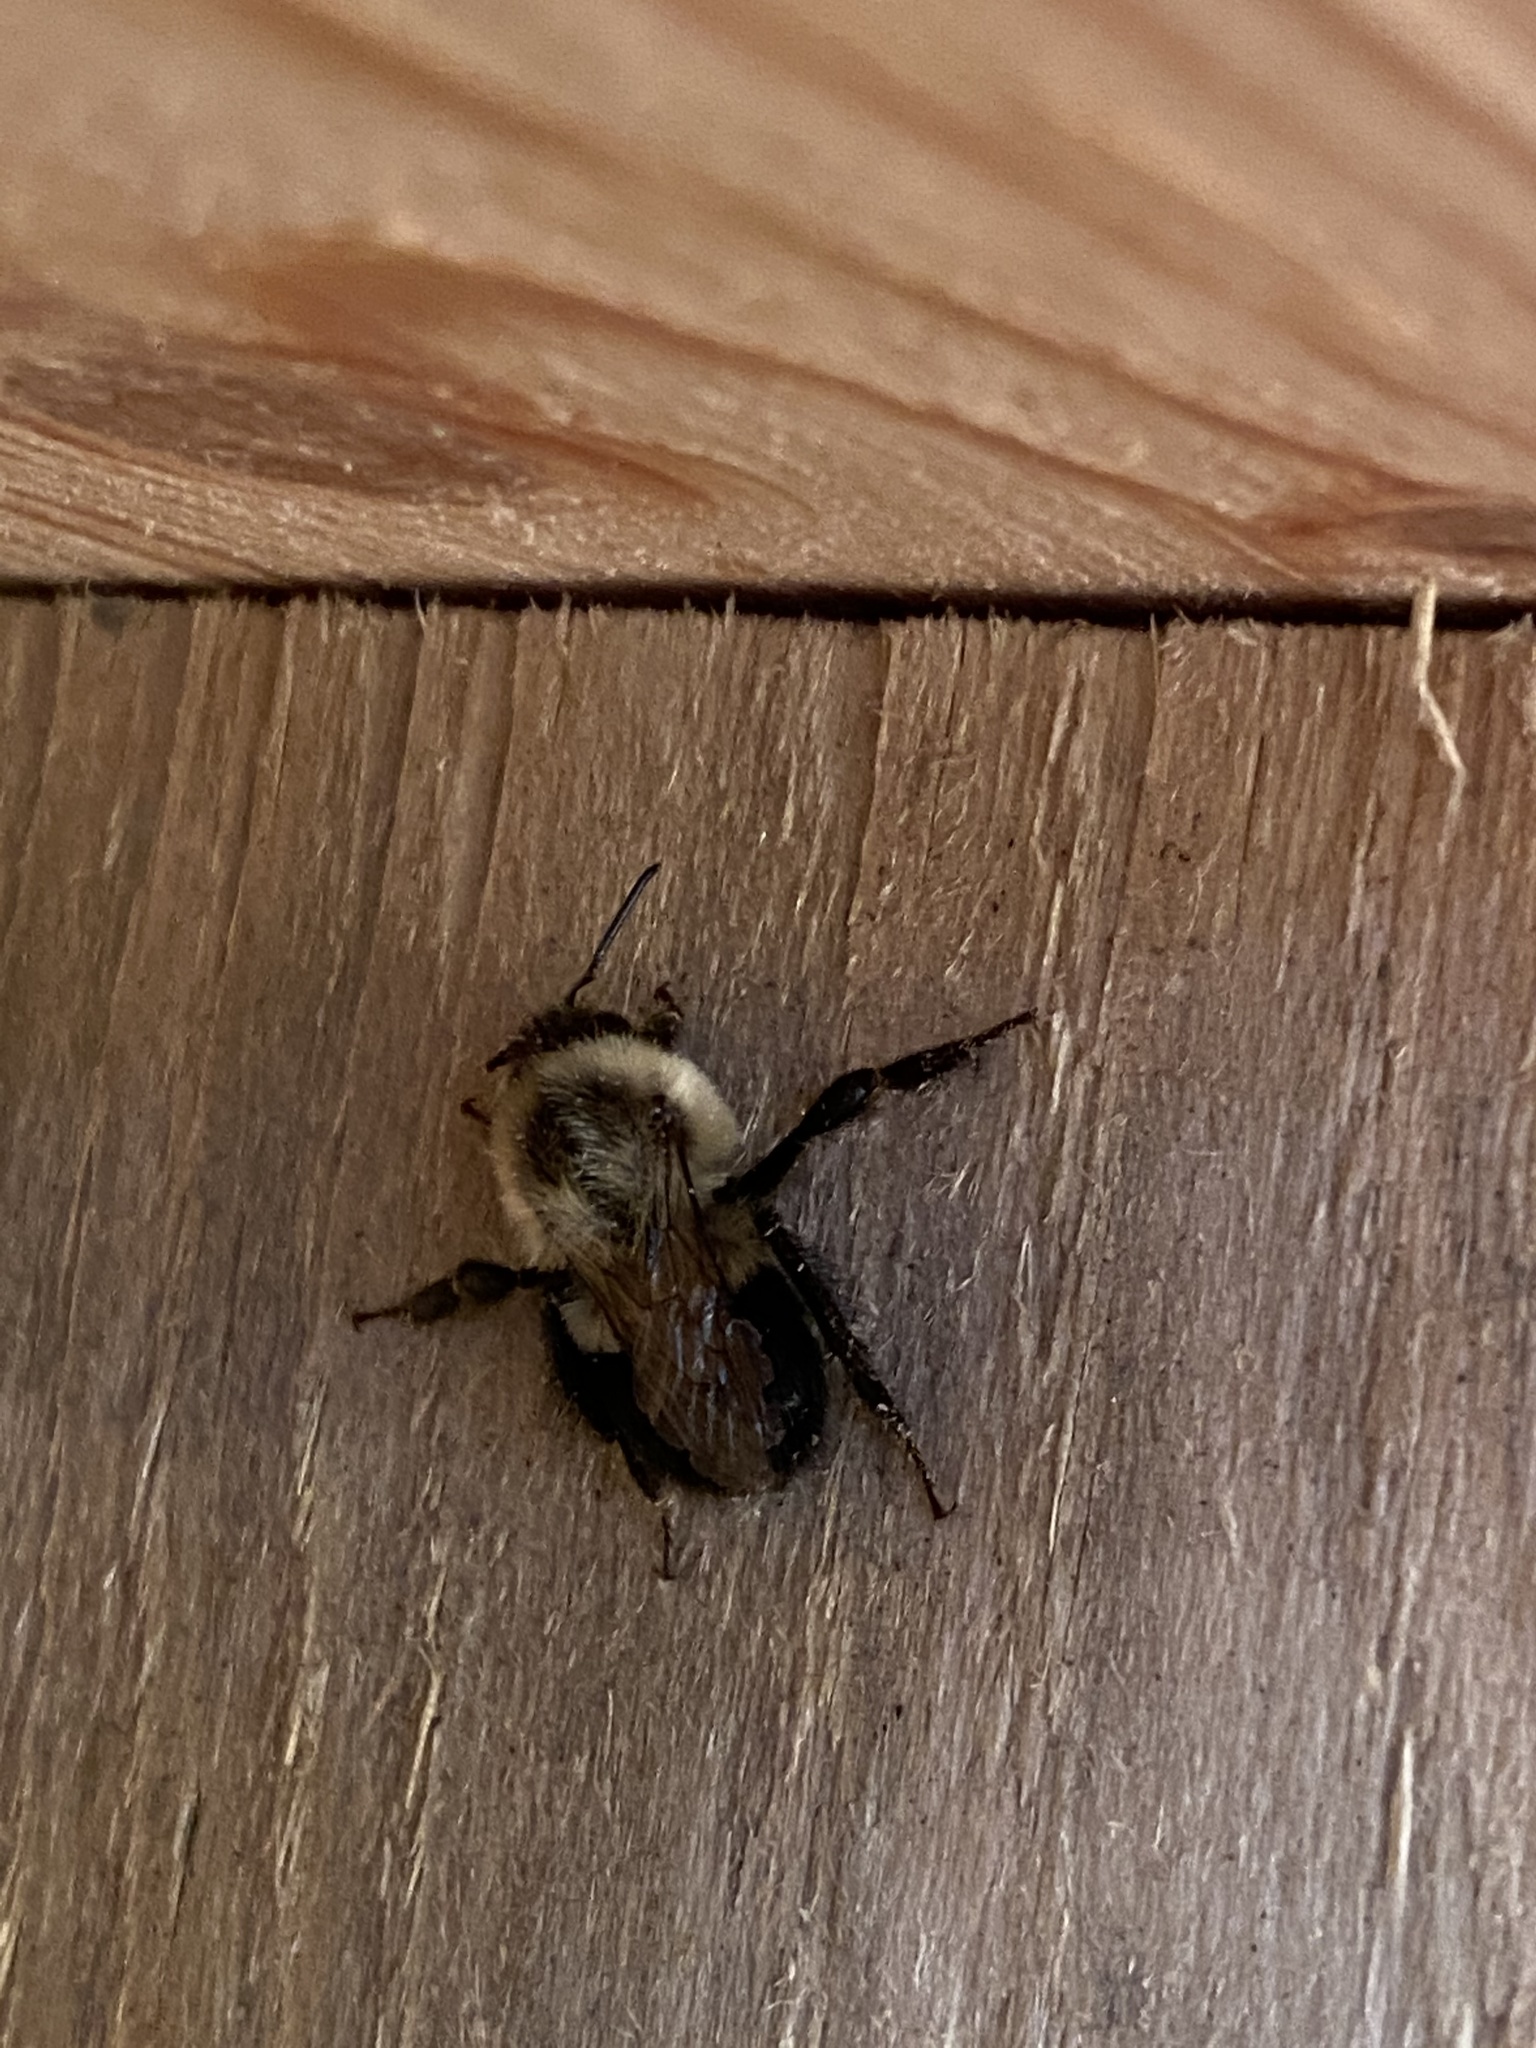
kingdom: Animalia
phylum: Arthropoda
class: Insecta
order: Hymenoptera
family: Apidae
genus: Bombus
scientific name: Bombus impatiens
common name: Common eastern bumble bee
